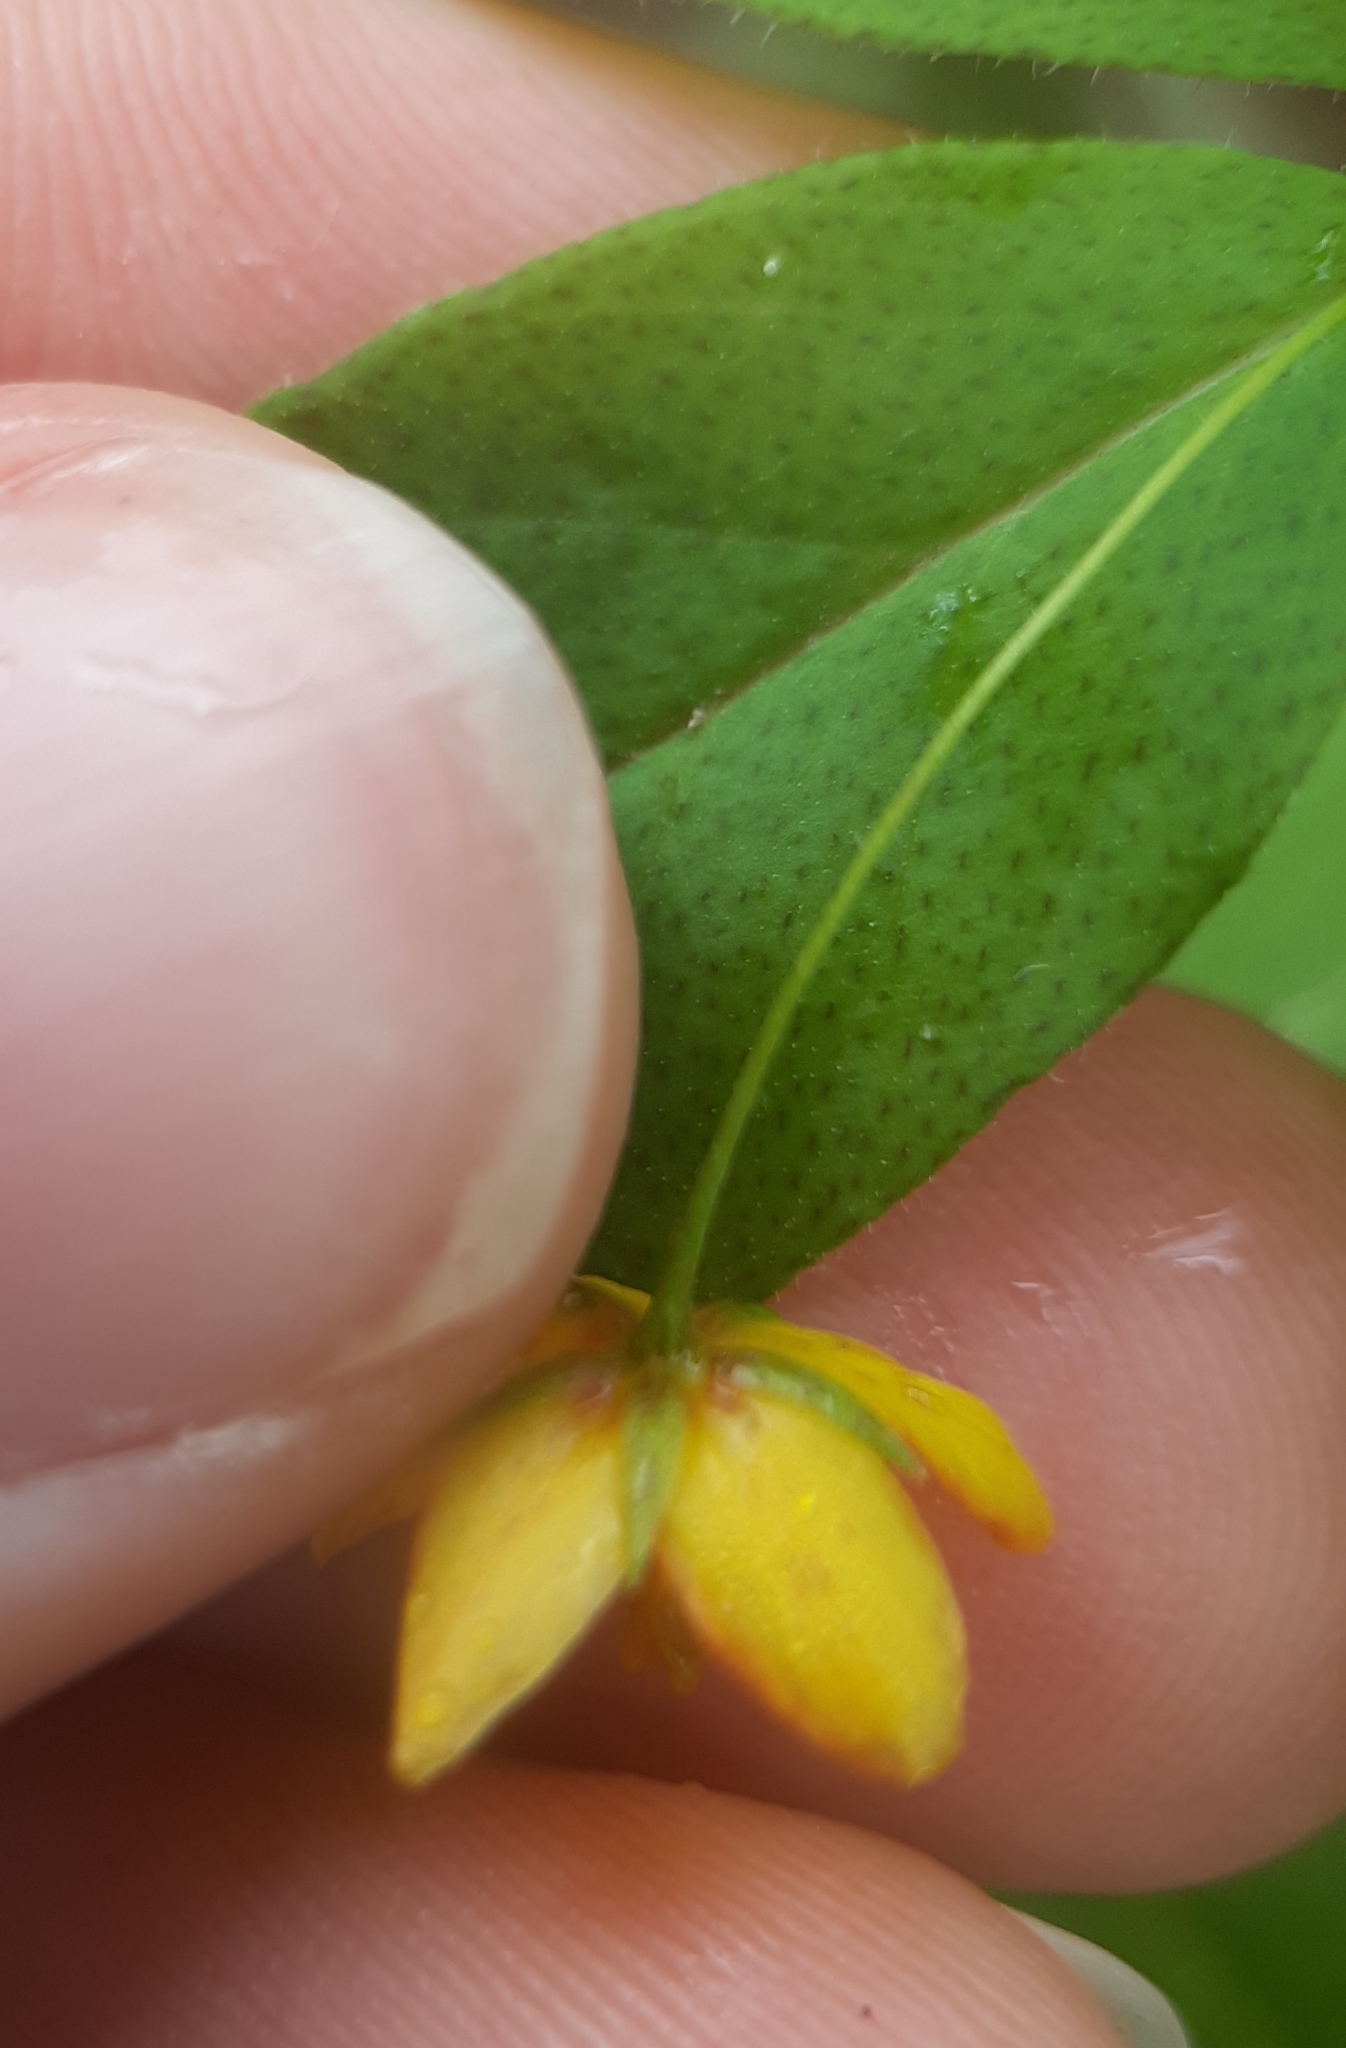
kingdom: Plantae
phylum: Tracheophyta
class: Magnoliopsida
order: Ericales
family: Primulaceae
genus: Lysimachia
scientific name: Lysimachia quadrifolia
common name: Whorled loosestrife
